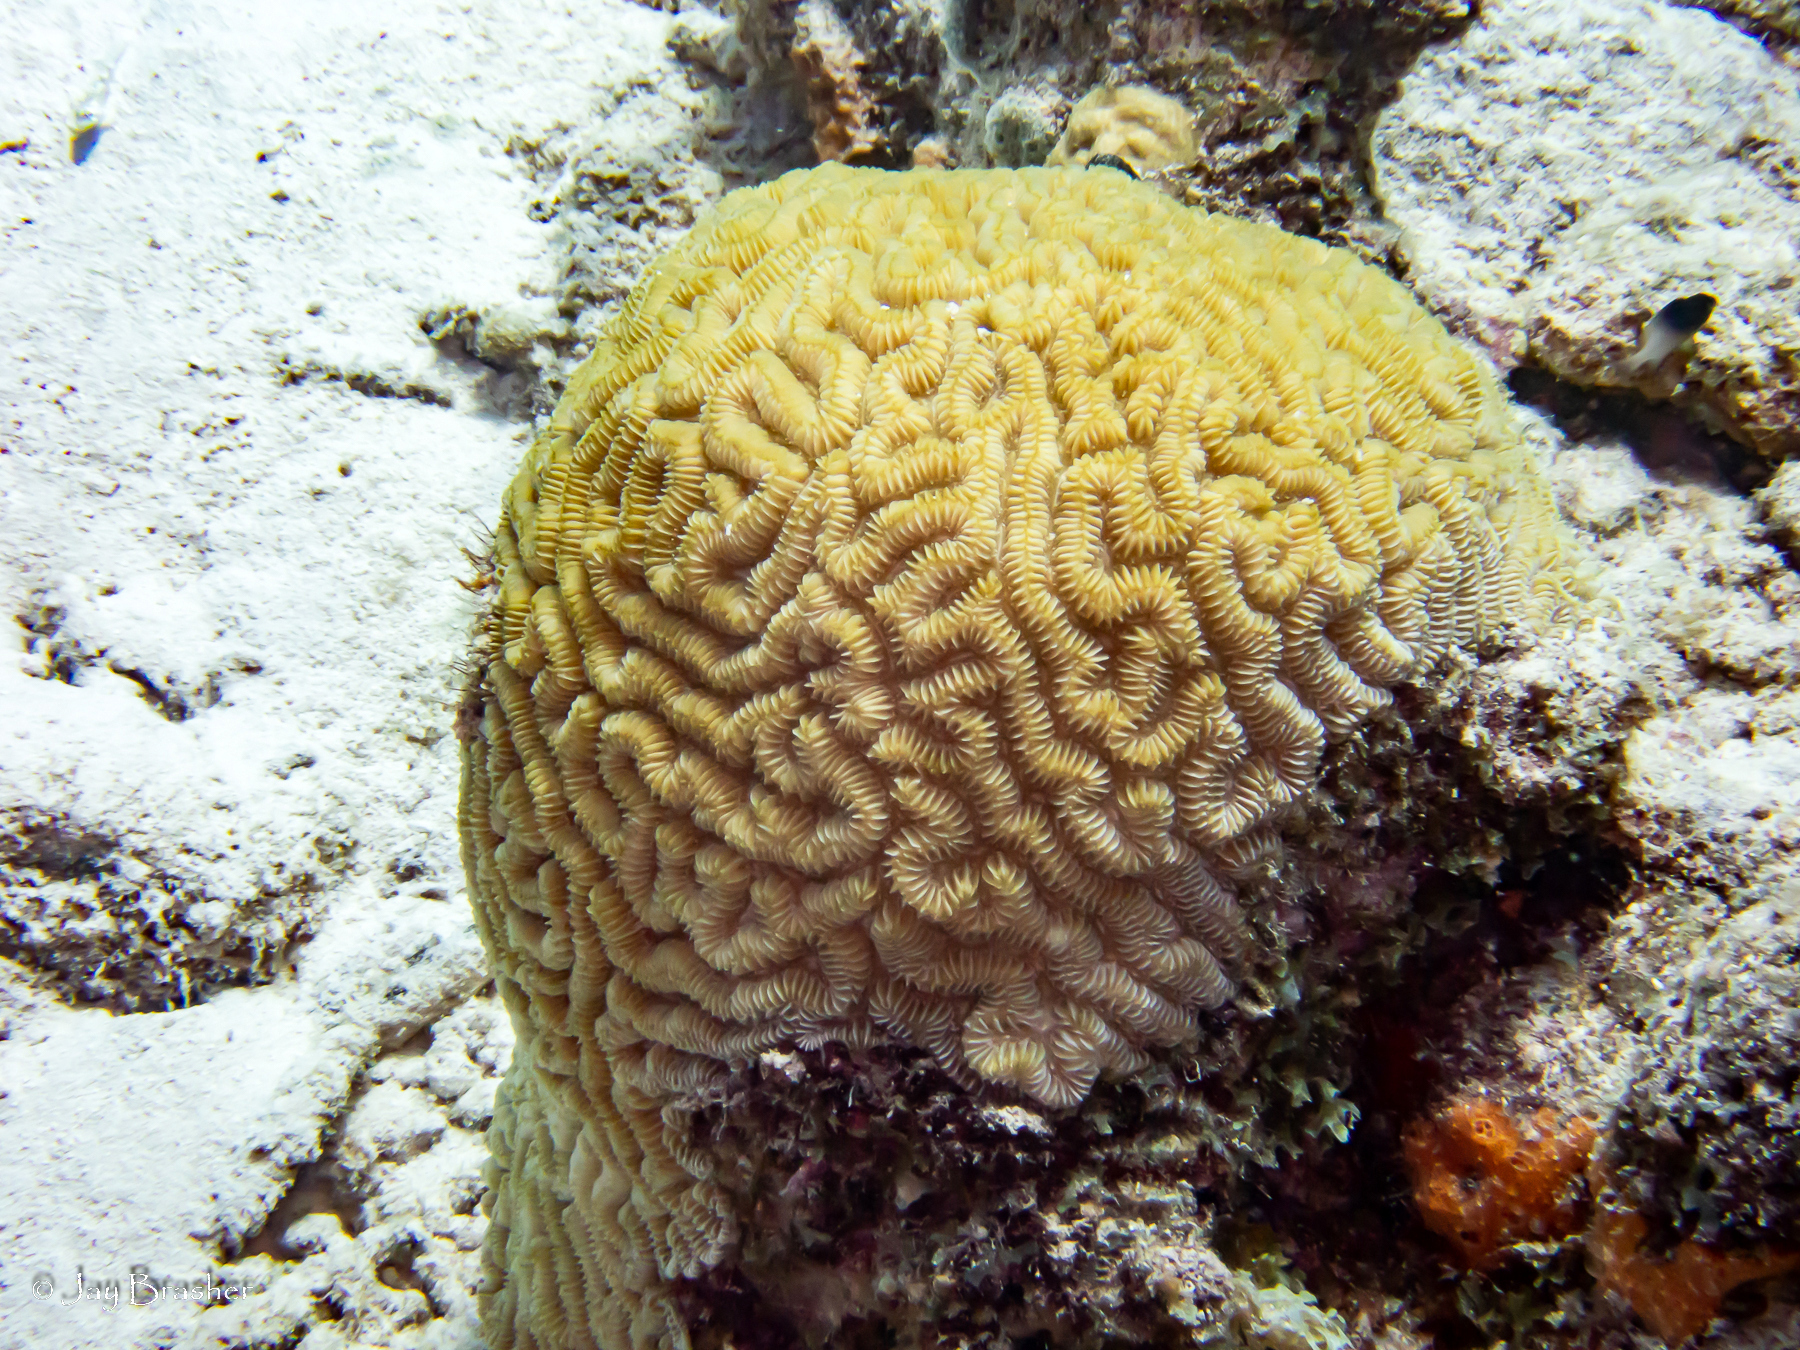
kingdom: Animalia
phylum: Cnidaria
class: Anthozoa
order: Scleractinia
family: Meandrinidae
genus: Meandrina
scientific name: Meandrina meandrites
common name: Maze coral
